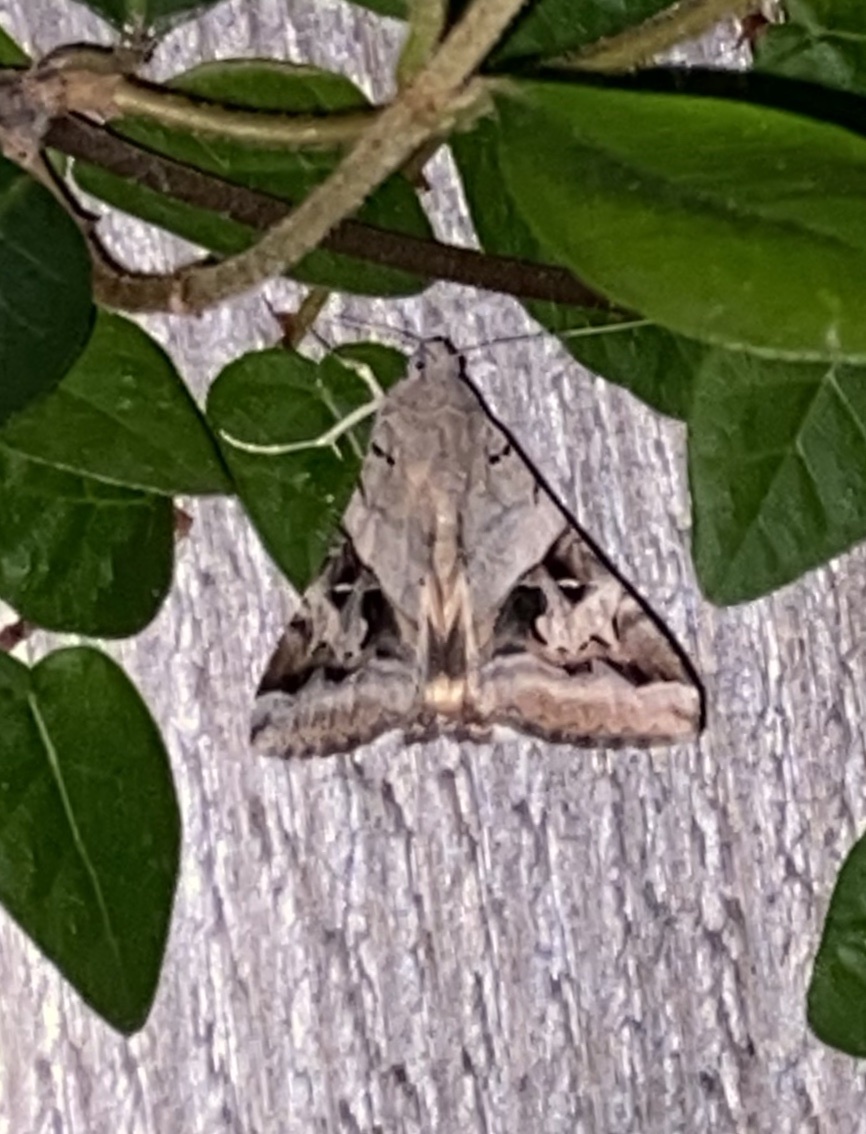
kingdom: Animalia
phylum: Arthropoda
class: Insecta
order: Lepidoptera
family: Erebidae
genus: Melipotis
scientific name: Melipotis indomita
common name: Moth
